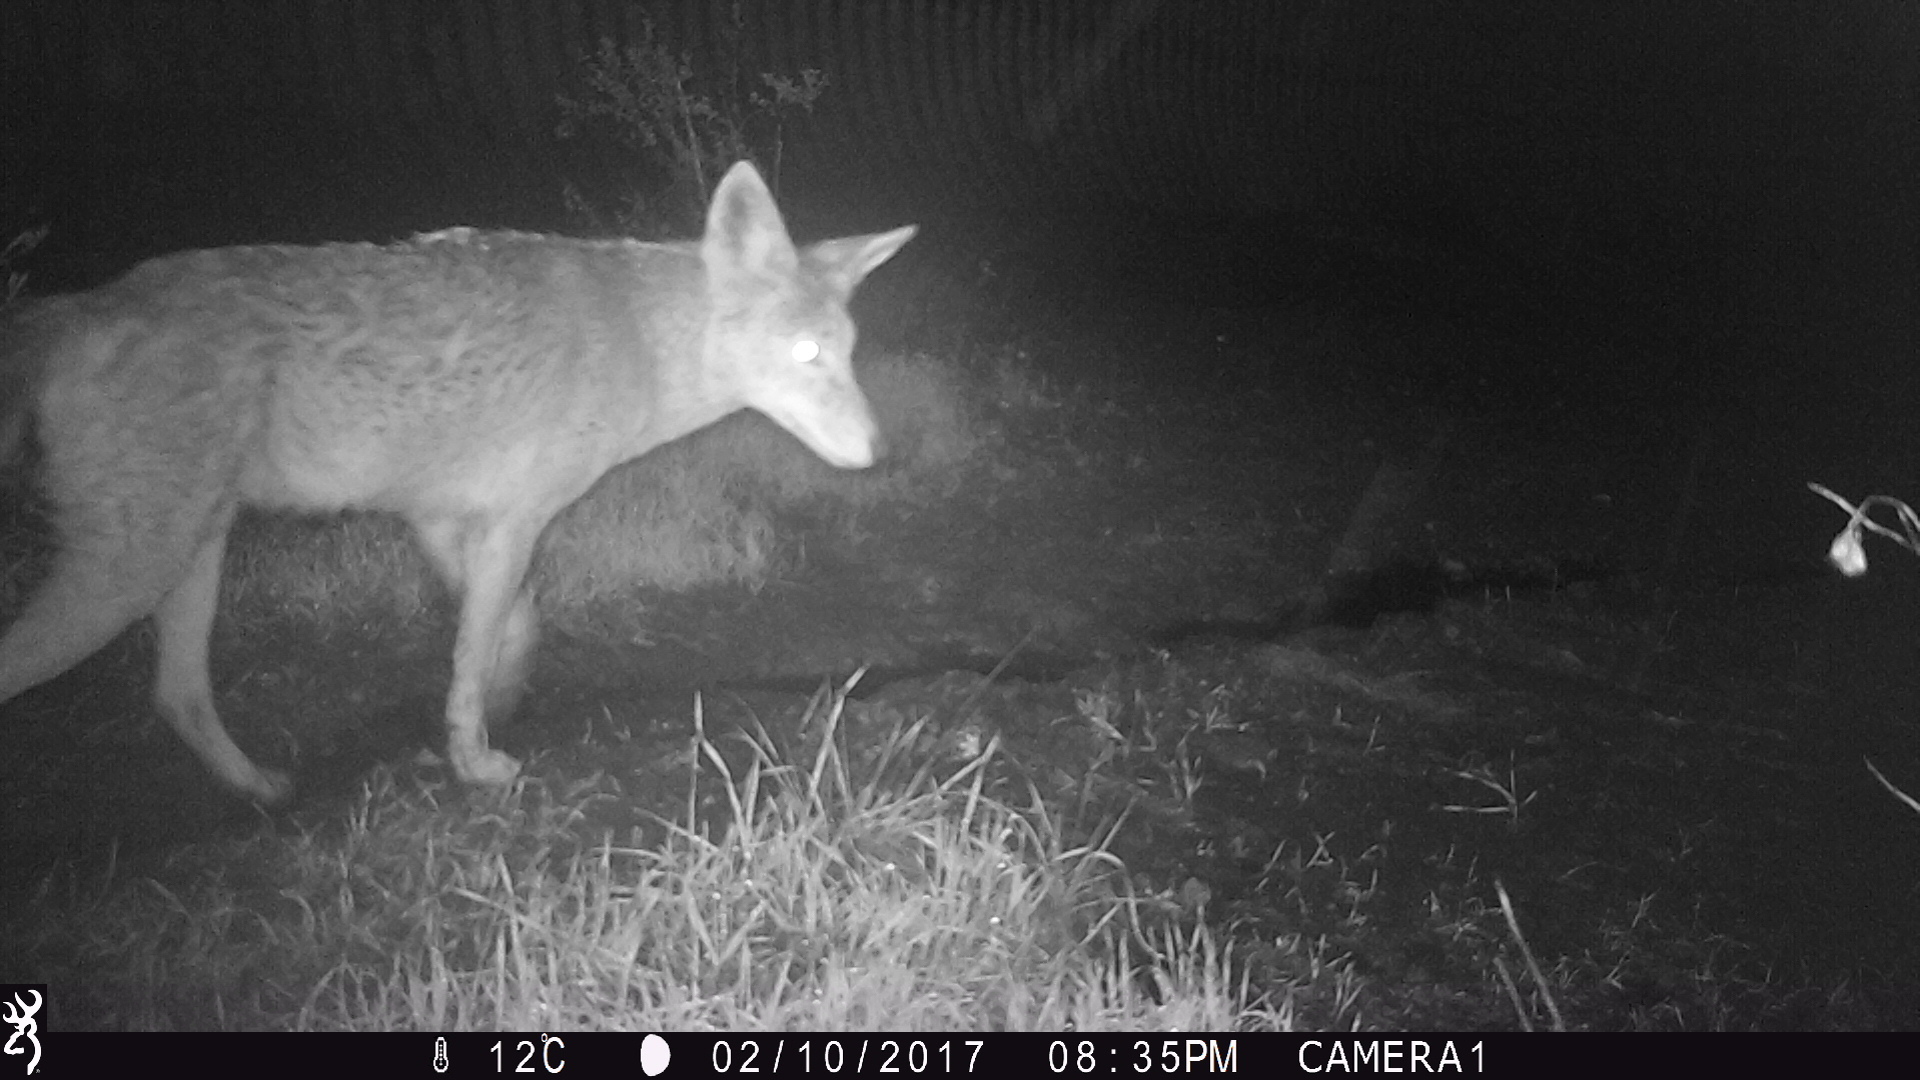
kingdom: Animalia
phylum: Chordata
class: Mammalia
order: Carnivora
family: Canidae
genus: Canis
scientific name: Canis latrans
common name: Coyote
